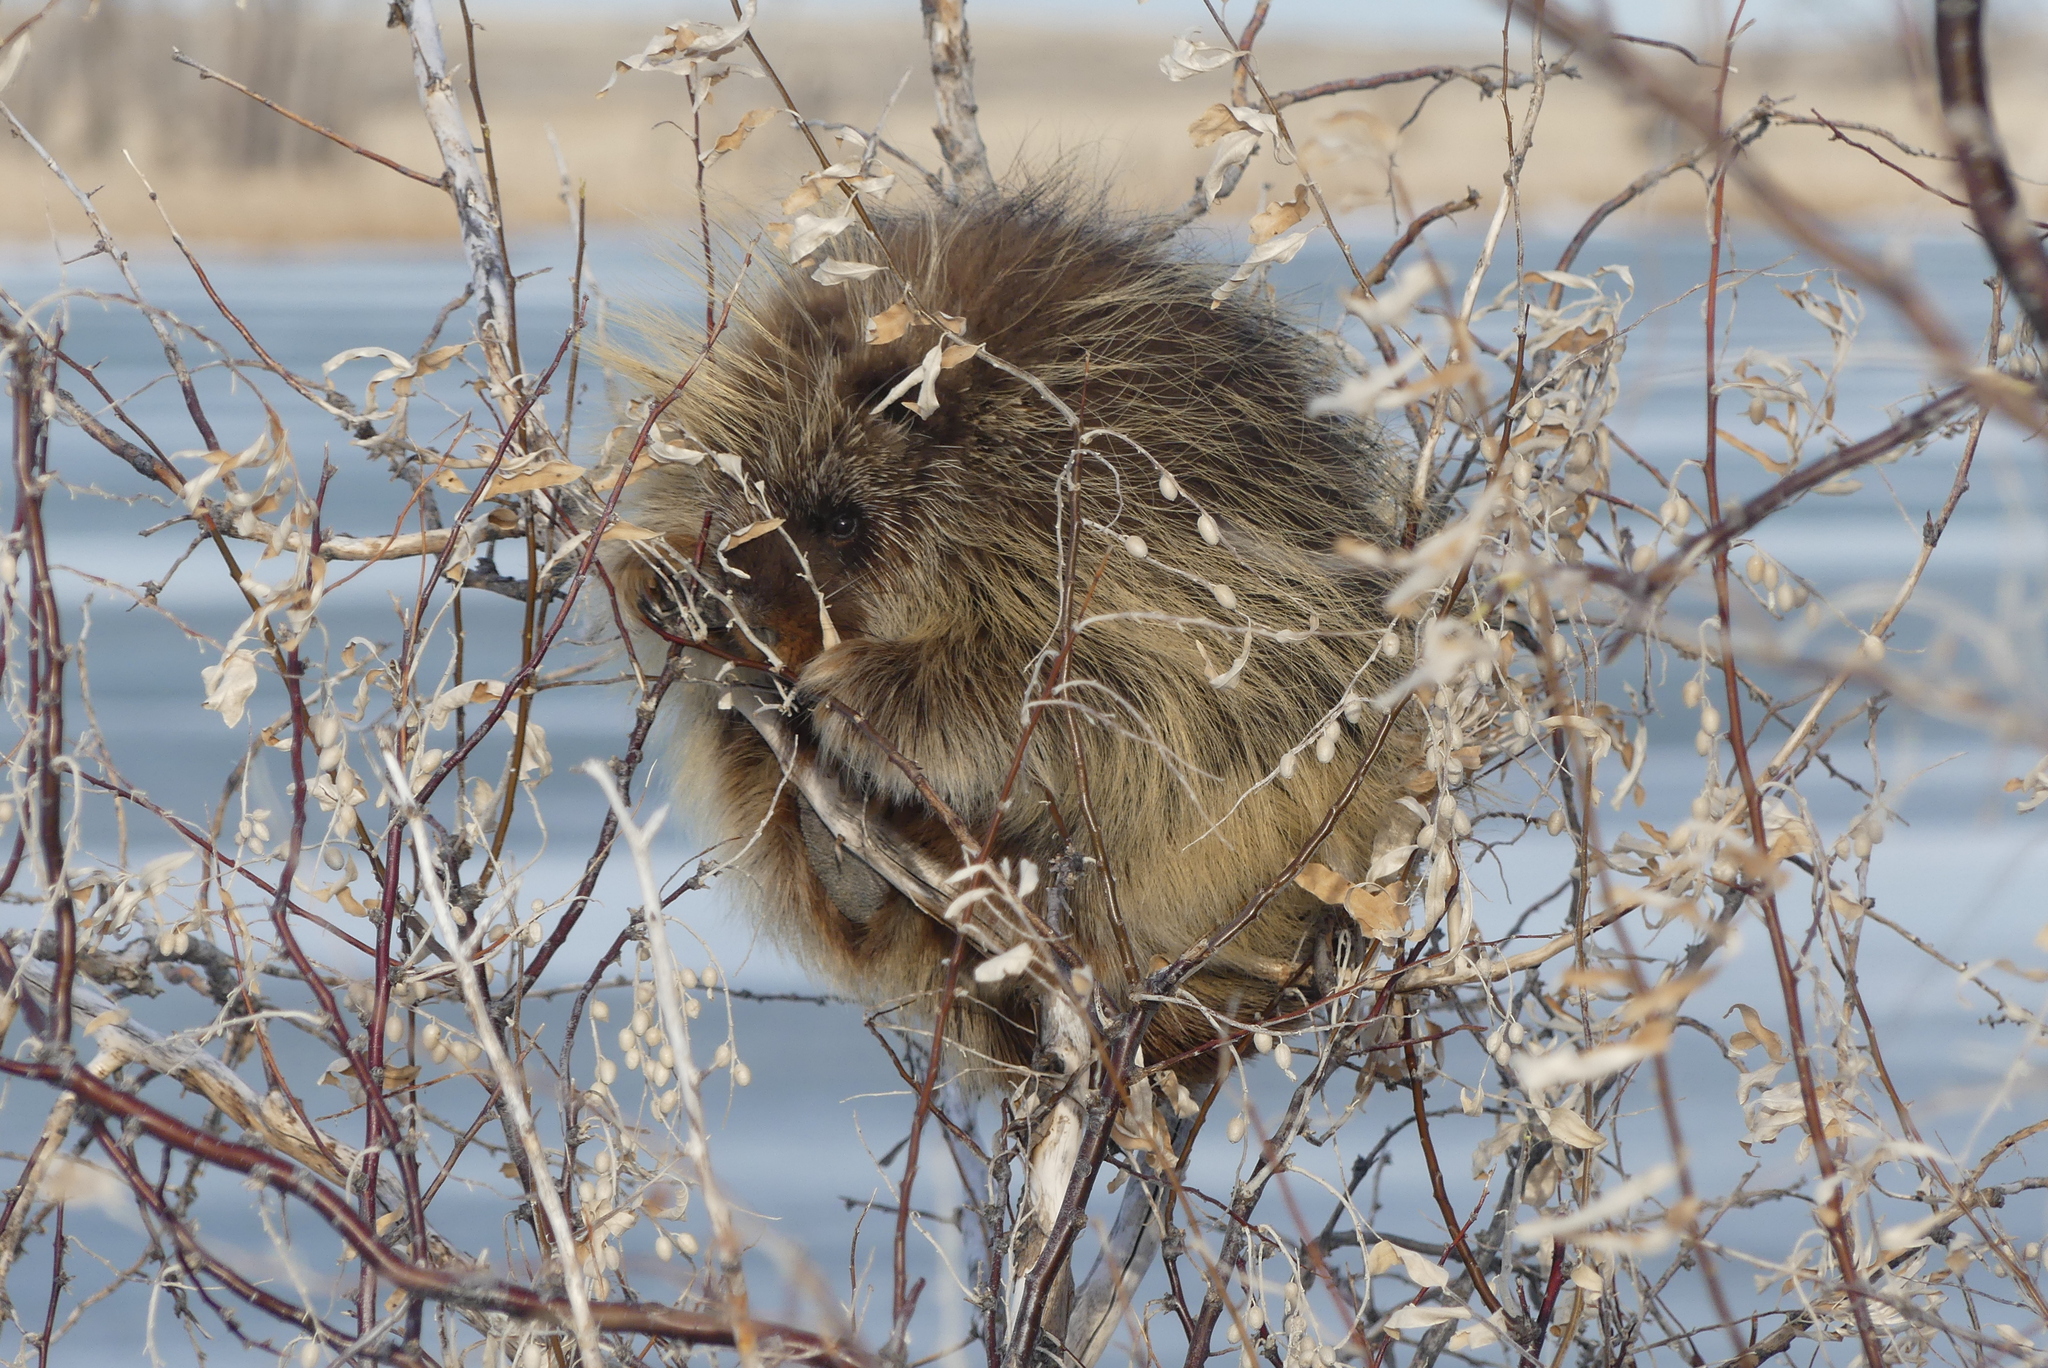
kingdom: Animalia
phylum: Chordata
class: Mammalia
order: Rodentia
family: Erethizontidae
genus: Erethizon
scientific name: Erethizon dorsatus
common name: North american porcupine
